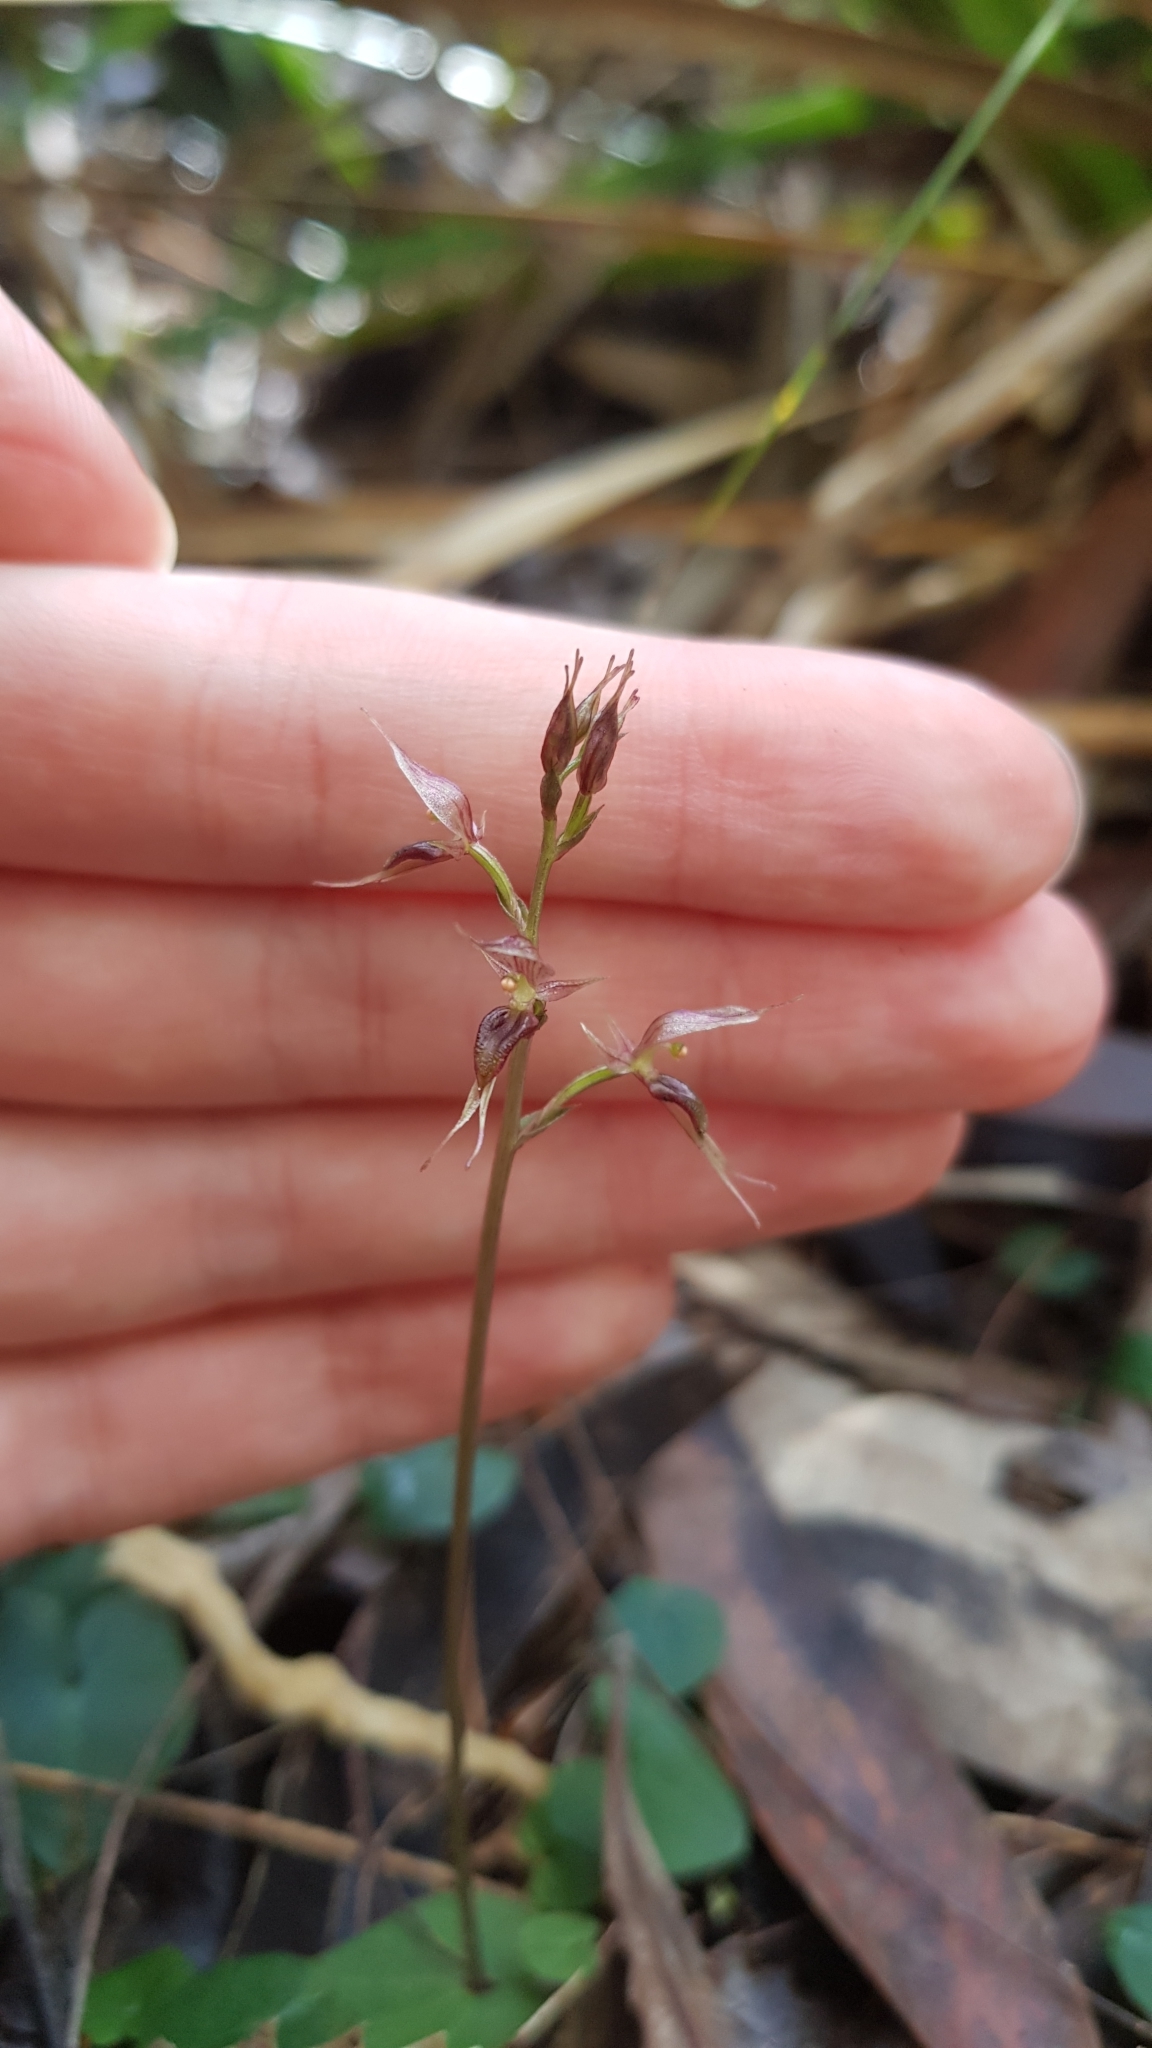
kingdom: Plantae
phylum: Tracheophyta
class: Liliopsida
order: Asparagales
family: Orchidaceae
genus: Acianthus
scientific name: Acianthus pusillus
